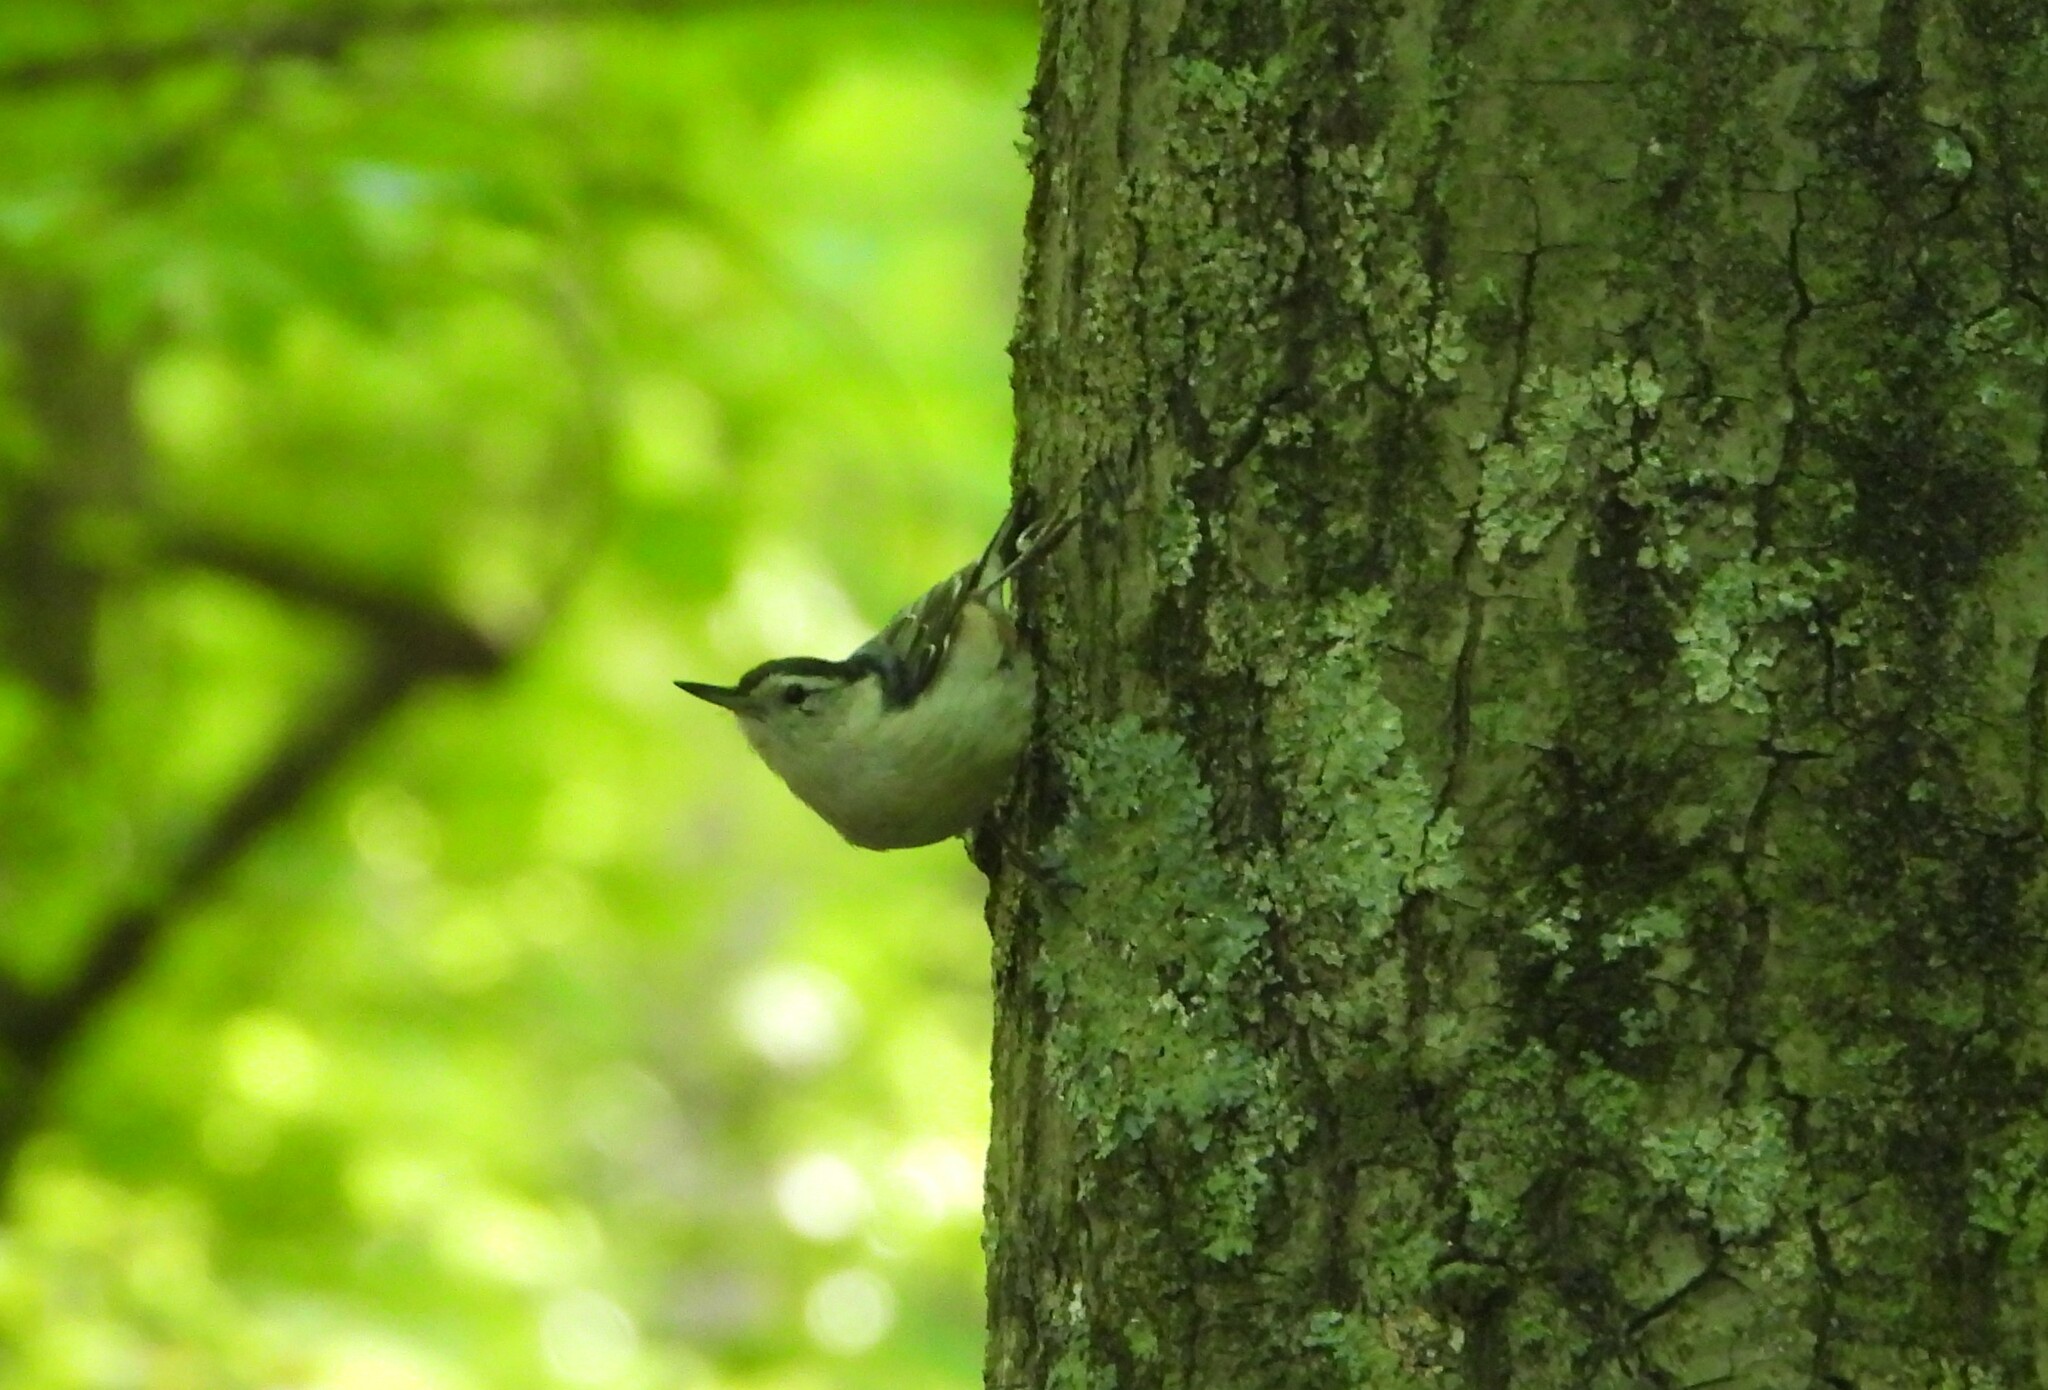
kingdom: Animalia
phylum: Chordata
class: Aves
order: Passeriformes
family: Sittidae
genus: Sitta
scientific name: Sitta carolinensis
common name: White-breasted nuthatch
